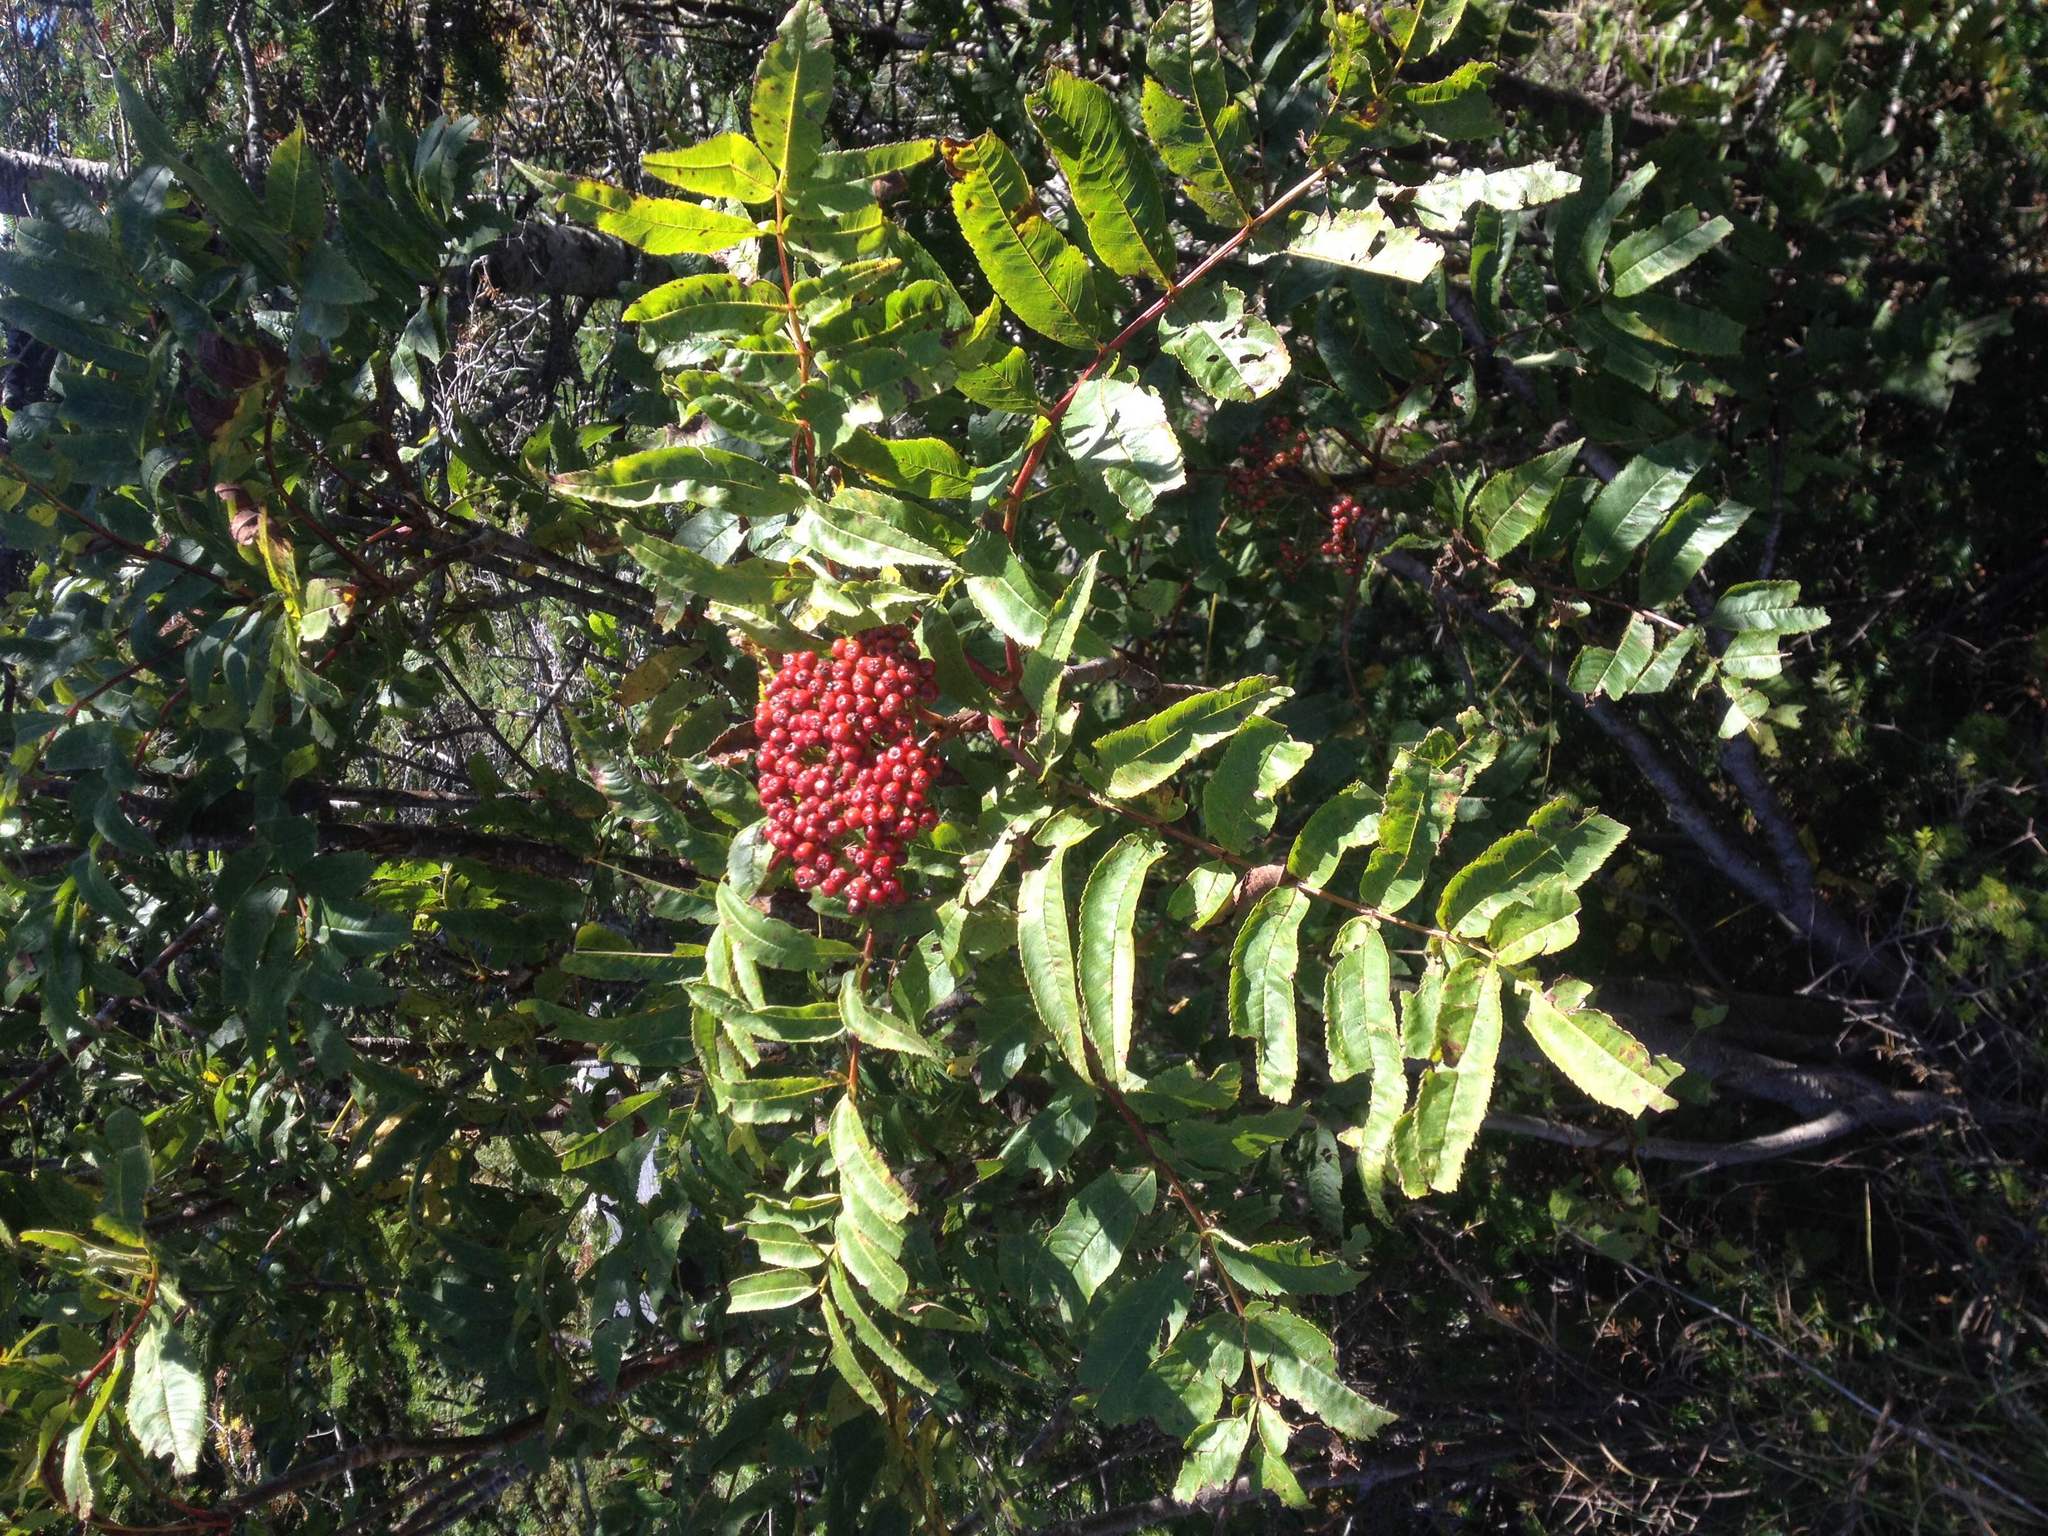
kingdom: Plantae
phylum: Tracheophyta
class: Magnoliopsida
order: Rosales
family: Rosaceae
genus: Sorbus
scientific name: Sorbus americana
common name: American mountain-ash
